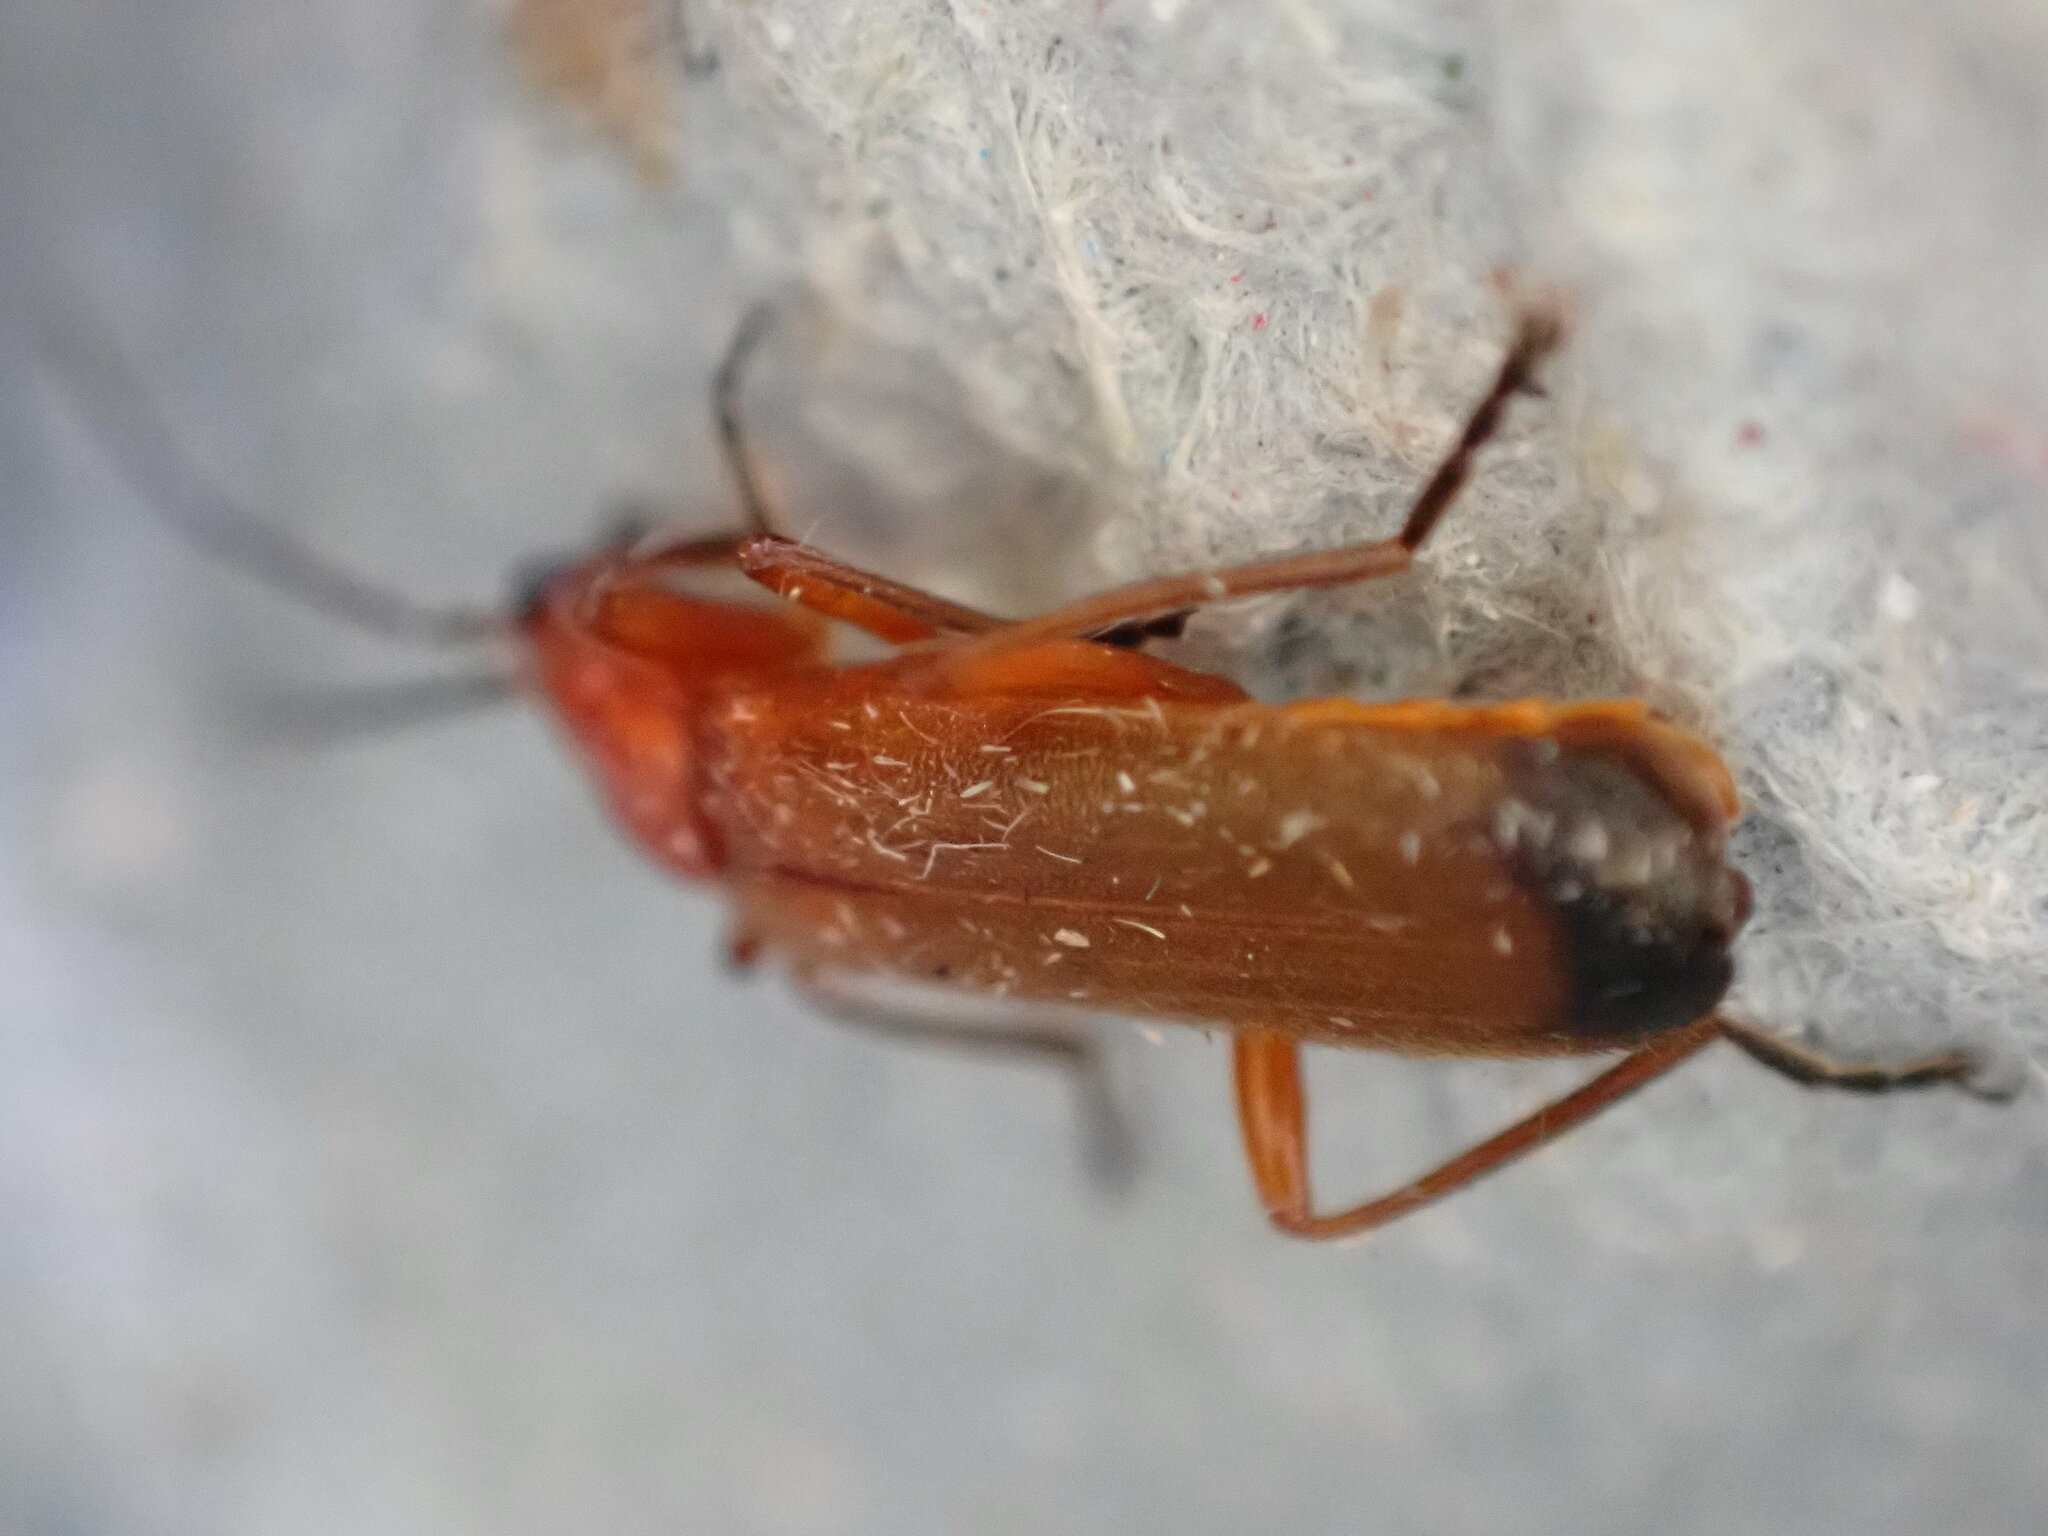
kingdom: Animalia
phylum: Arthropoda
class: Insecta
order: Coleoptera
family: Cantharidae
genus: Rhagonycha
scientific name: Rhagonycha fulva
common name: Common red soldier beetle
